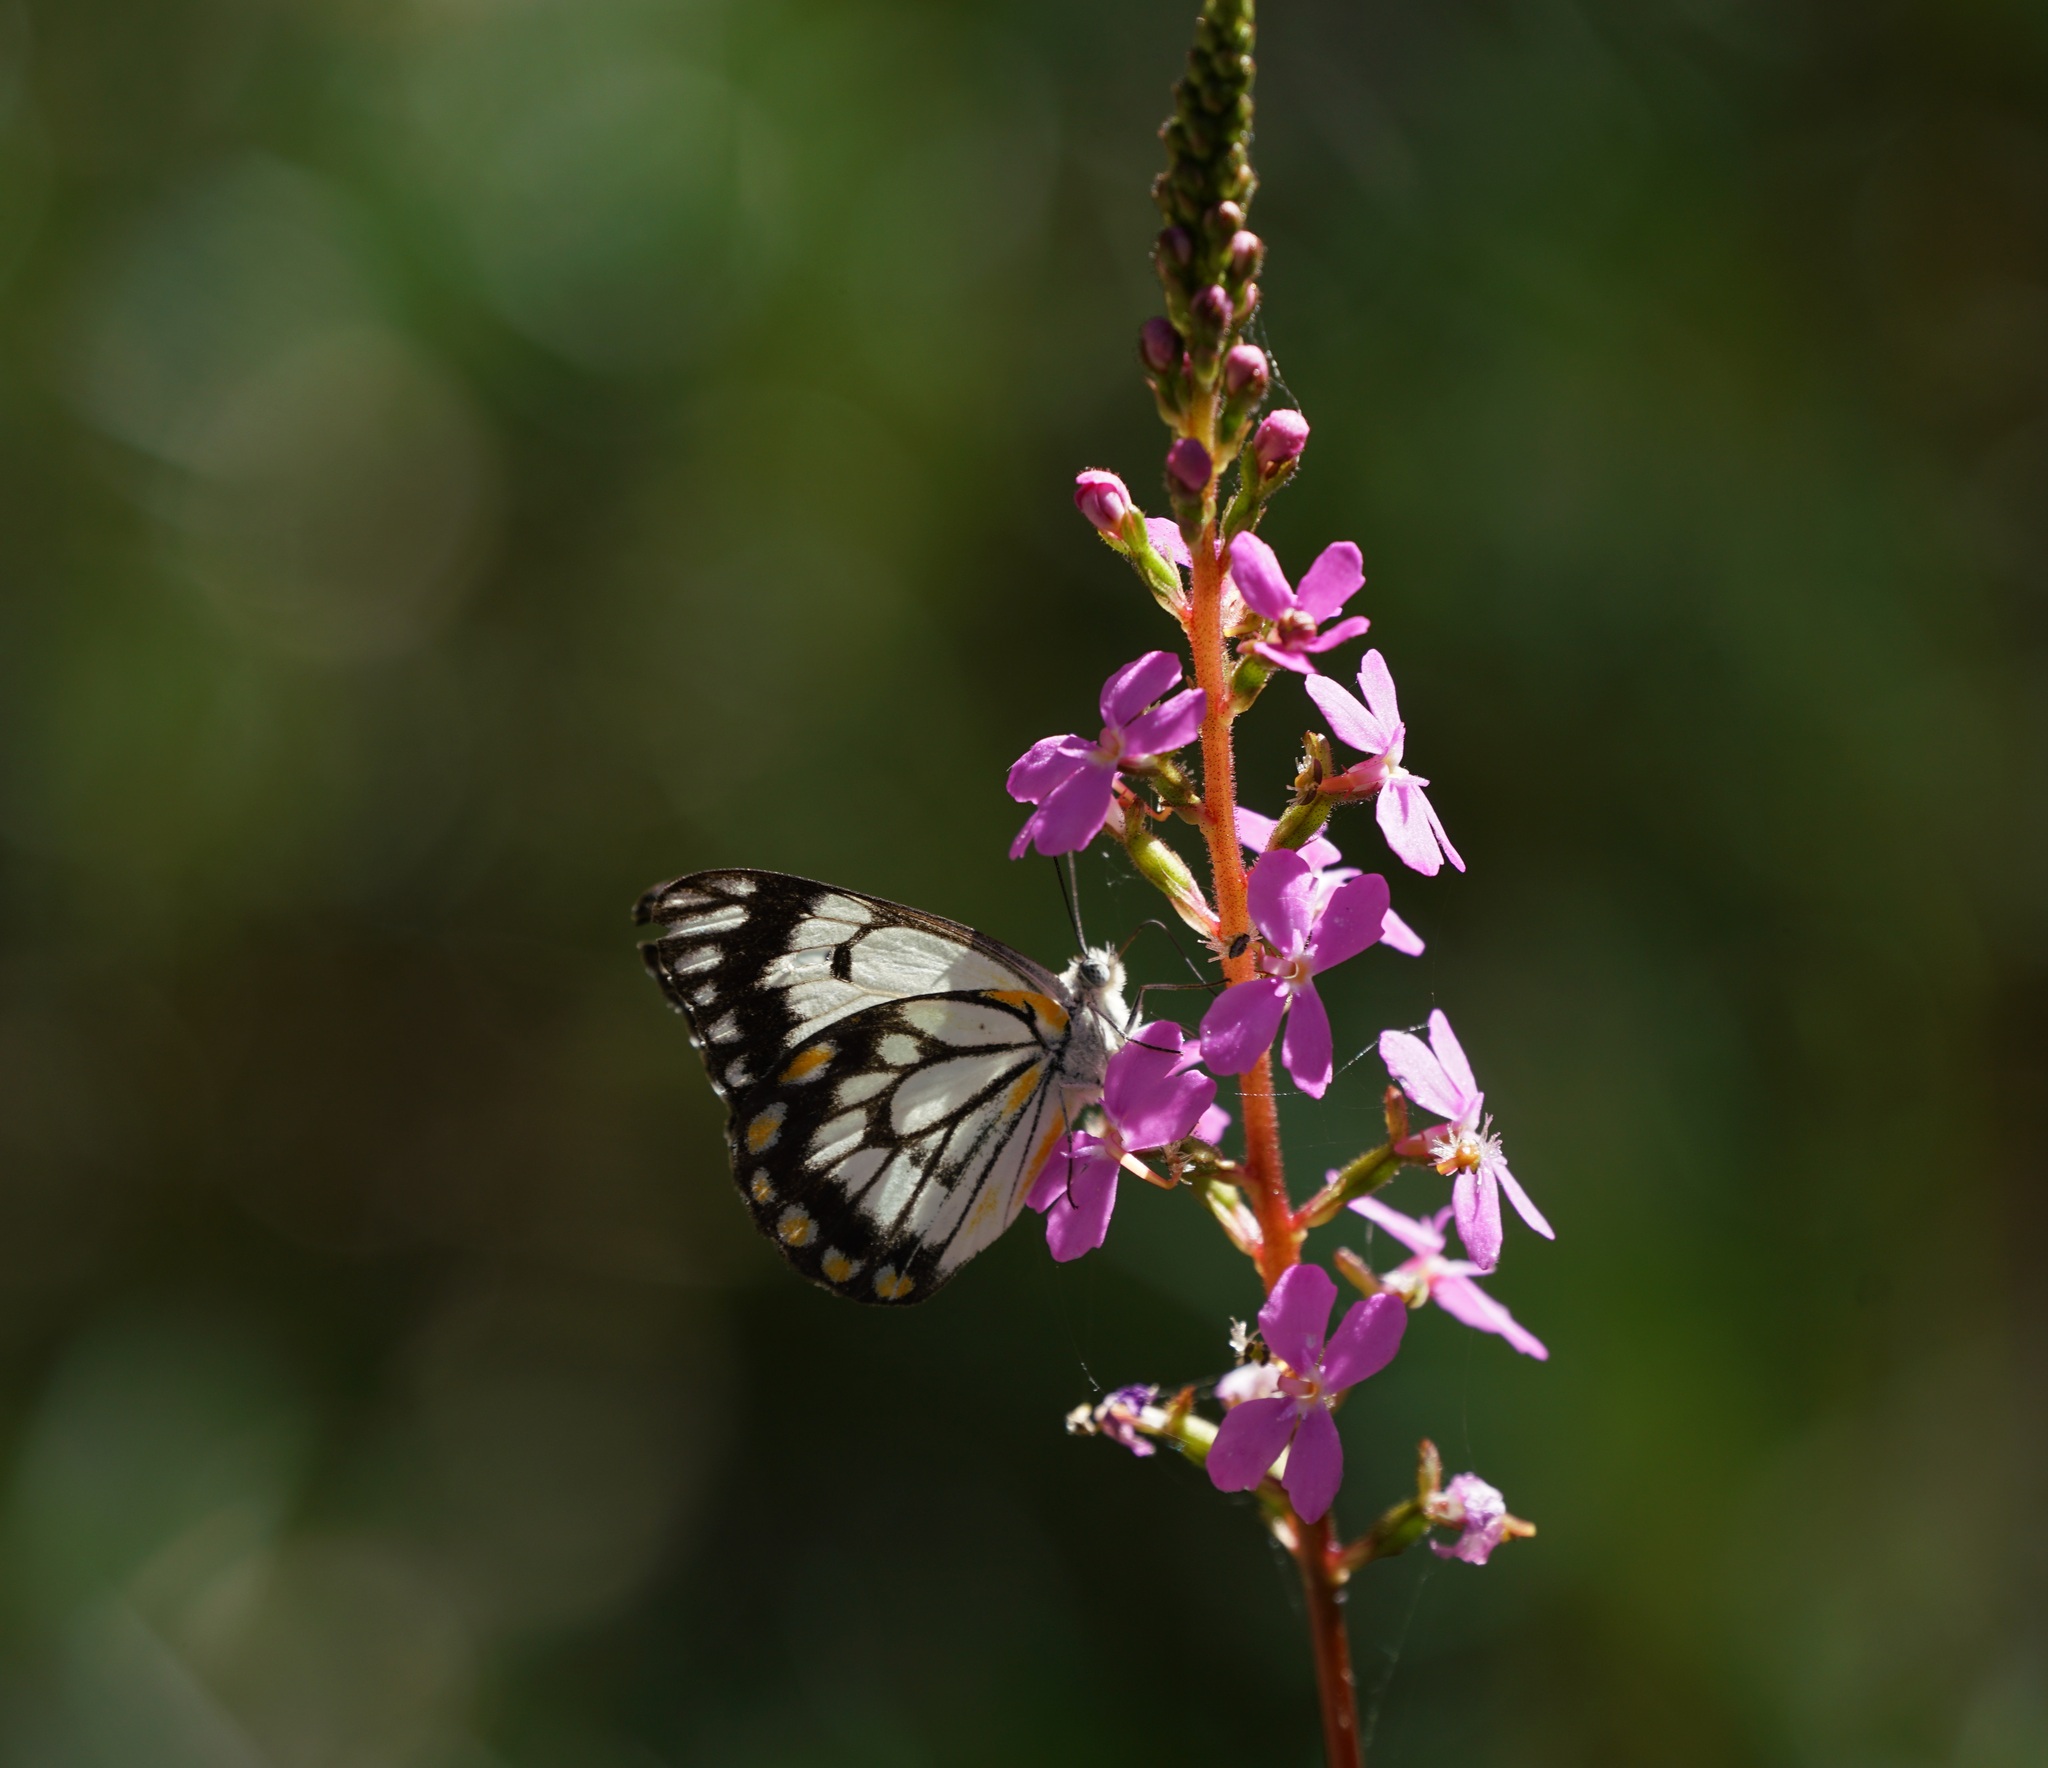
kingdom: Animalia
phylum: Arthropoda
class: Insecta
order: Lepidoptera
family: Pieridae
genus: Belenois
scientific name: Belenois java
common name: Caper white
